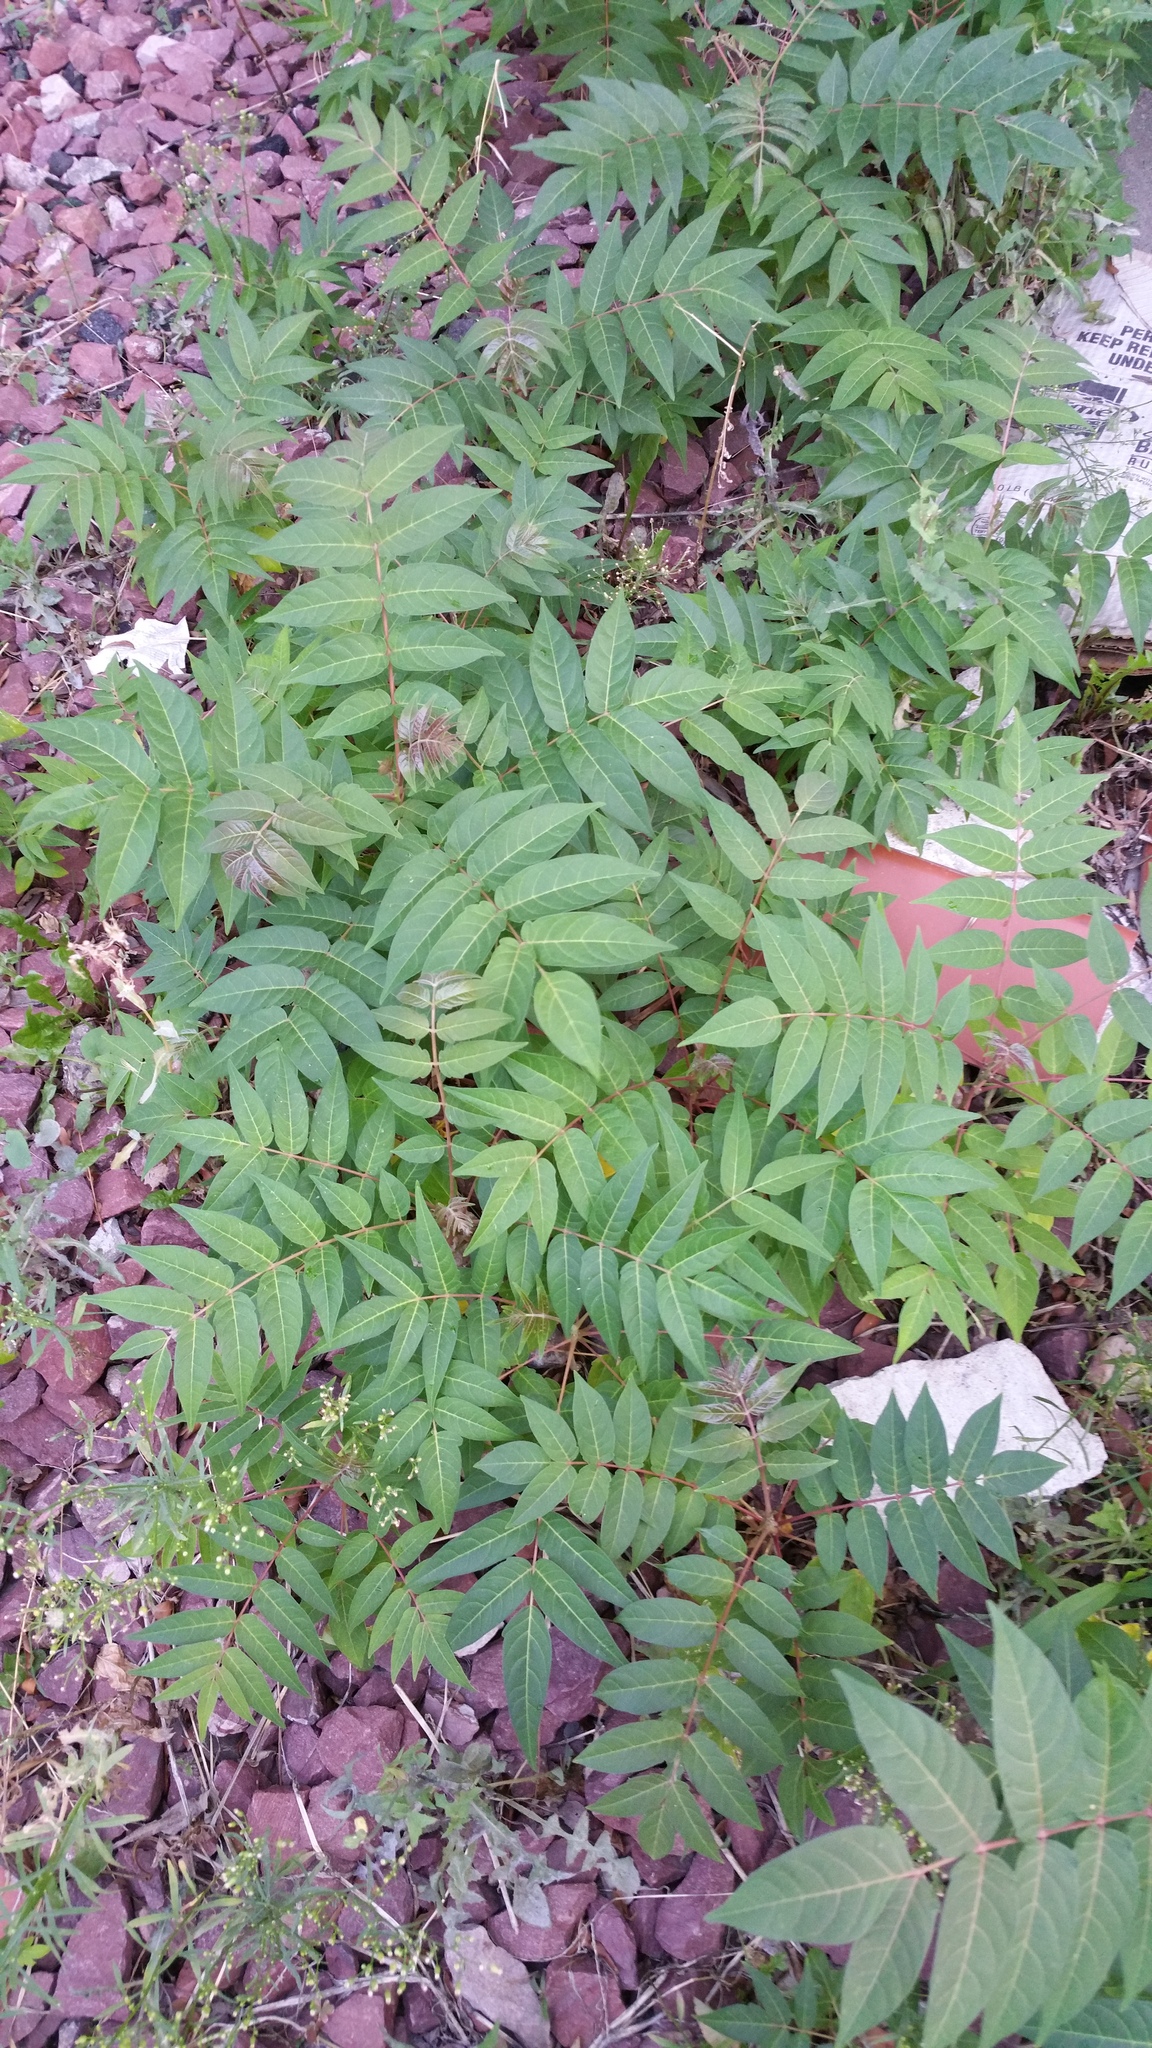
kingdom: Plantae
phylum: Tracheophyta
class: Magnoliopsida
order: Sapindales
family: Simaroubaceae
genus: Ailanthus
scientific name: Ailanthus altissima
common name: Tree-of-heaven
